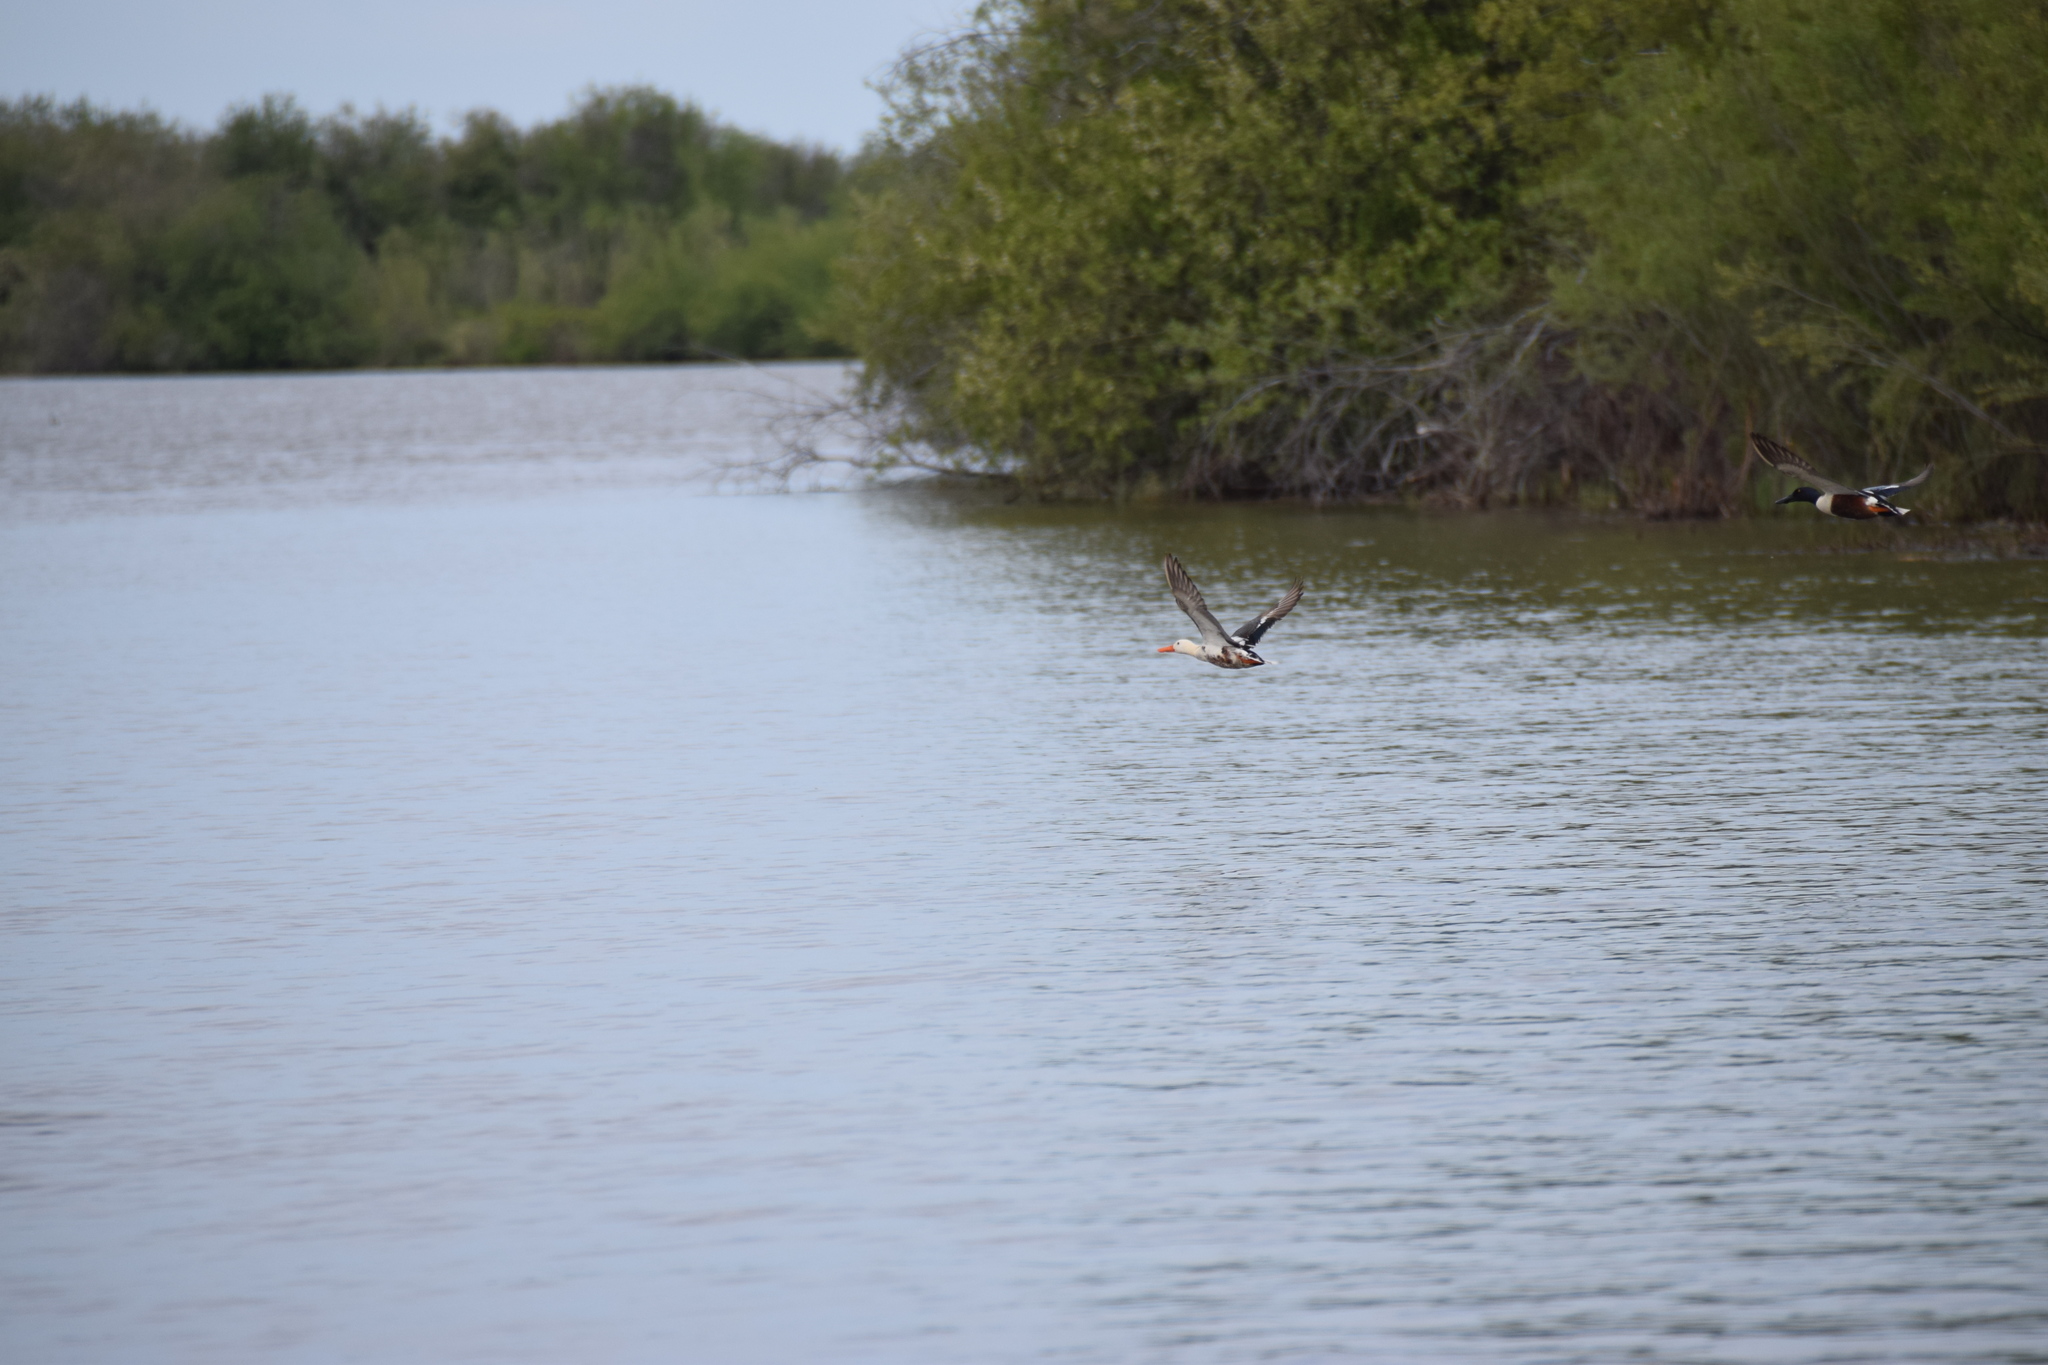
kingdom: Animalia
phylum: Chordata
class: Aves
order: Anseriformes
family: Anatidae
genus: Spatula
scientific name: Spatula clypeata
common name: Northern shoveler
